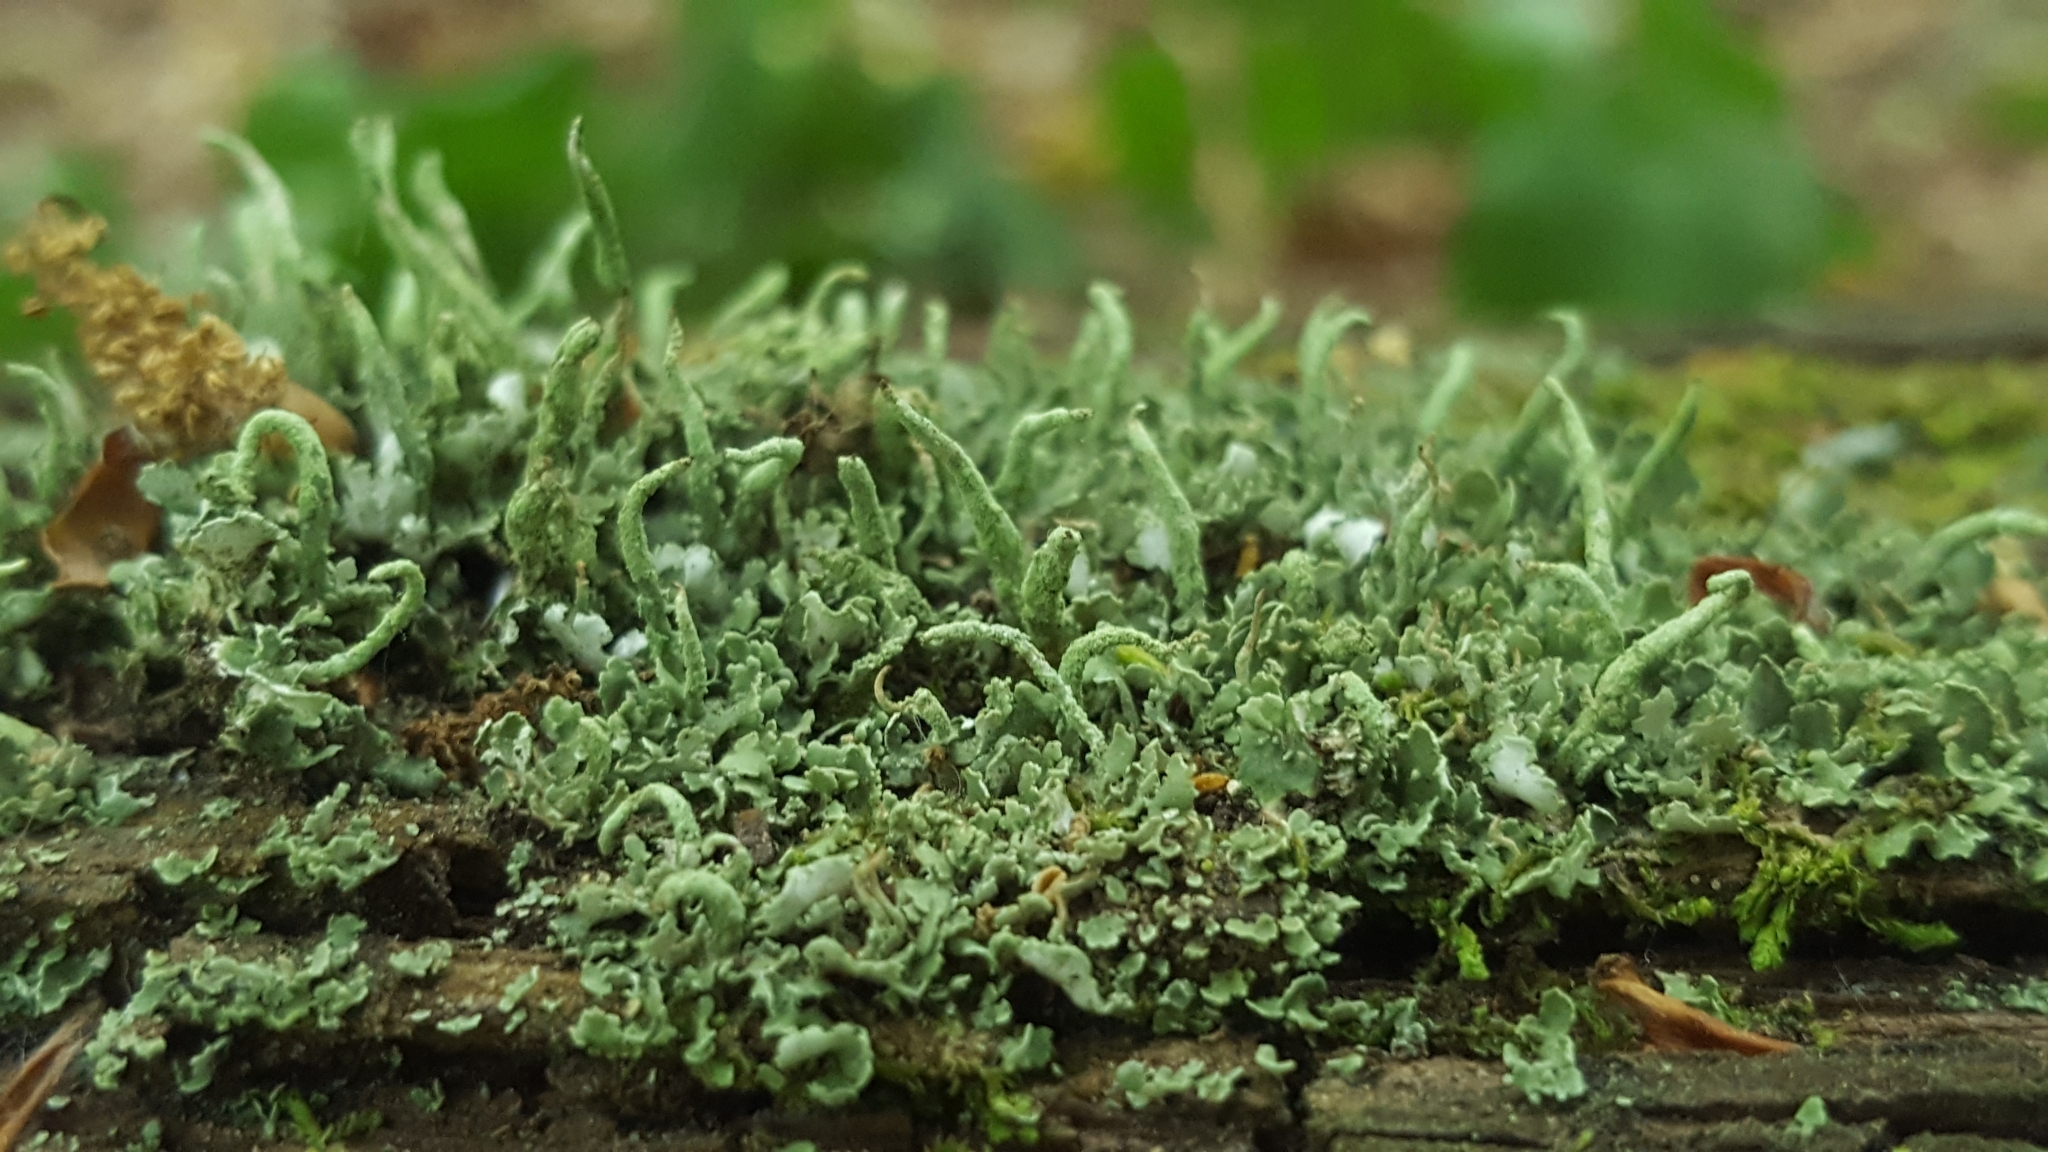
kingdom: Fungi
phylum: Ascomycota
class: Lecanoromycetes
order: Lecanorales
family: Cladoniaceae
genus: Cladonia
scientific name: Cladonia coniocraea
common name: Common powderhorn
